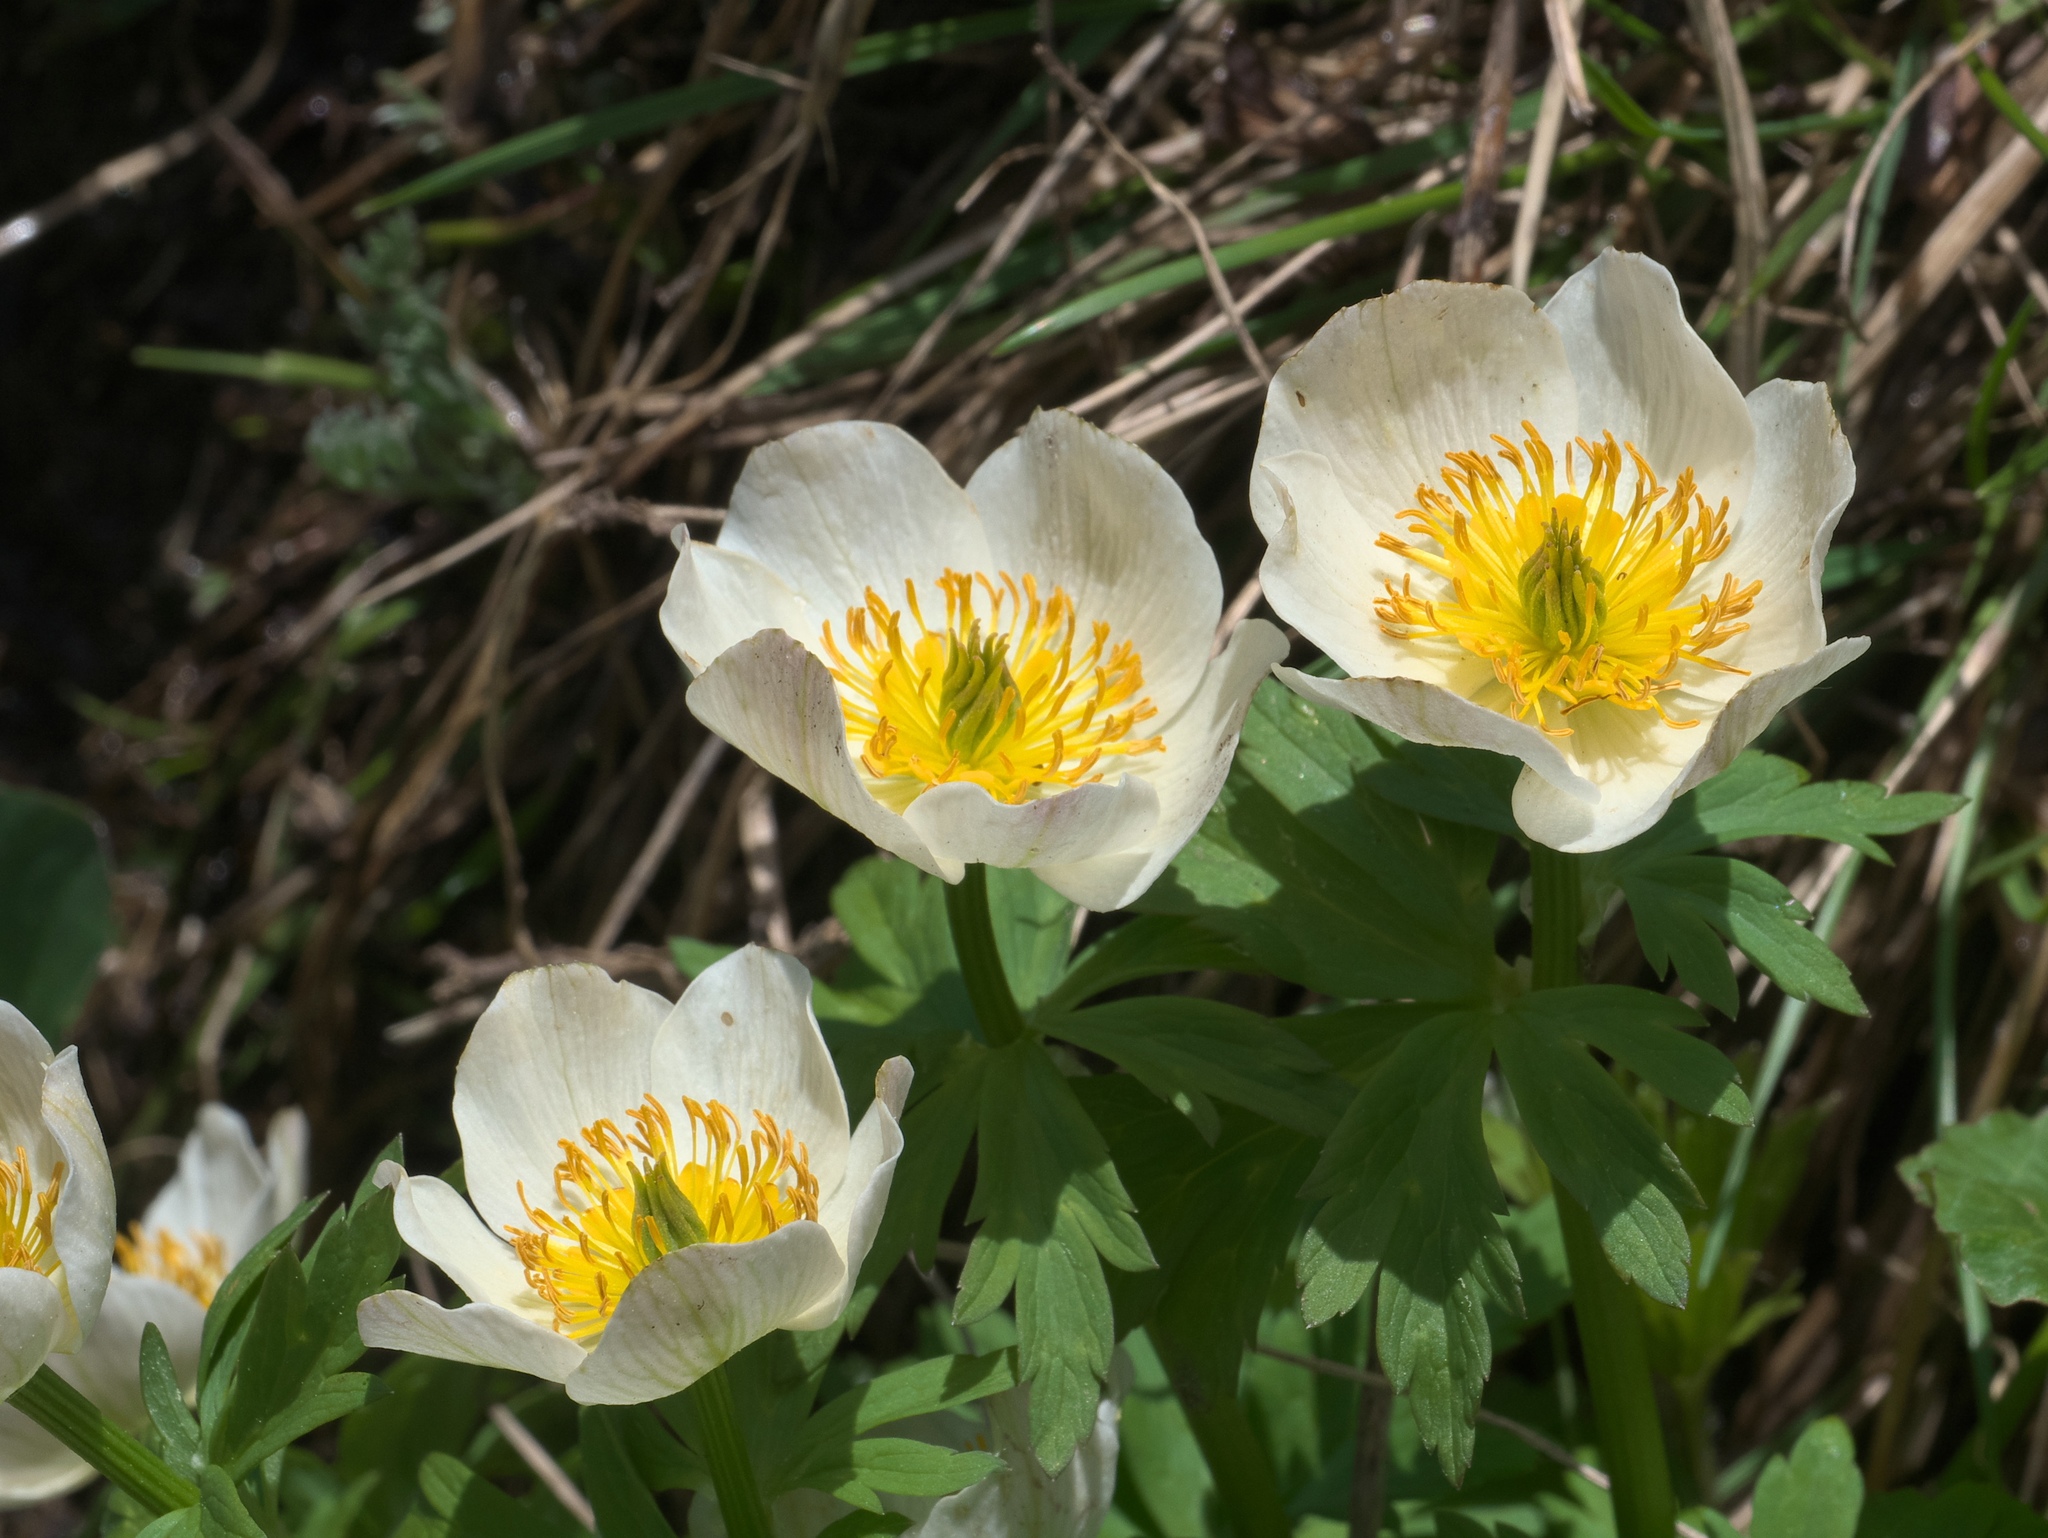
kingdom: Plantae
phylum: Tracheophyta
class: Magnoliopsida
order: Ranunculales
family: Ranunculaceae
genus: Trollius
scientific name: Trollius laxus
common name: American globeflower
